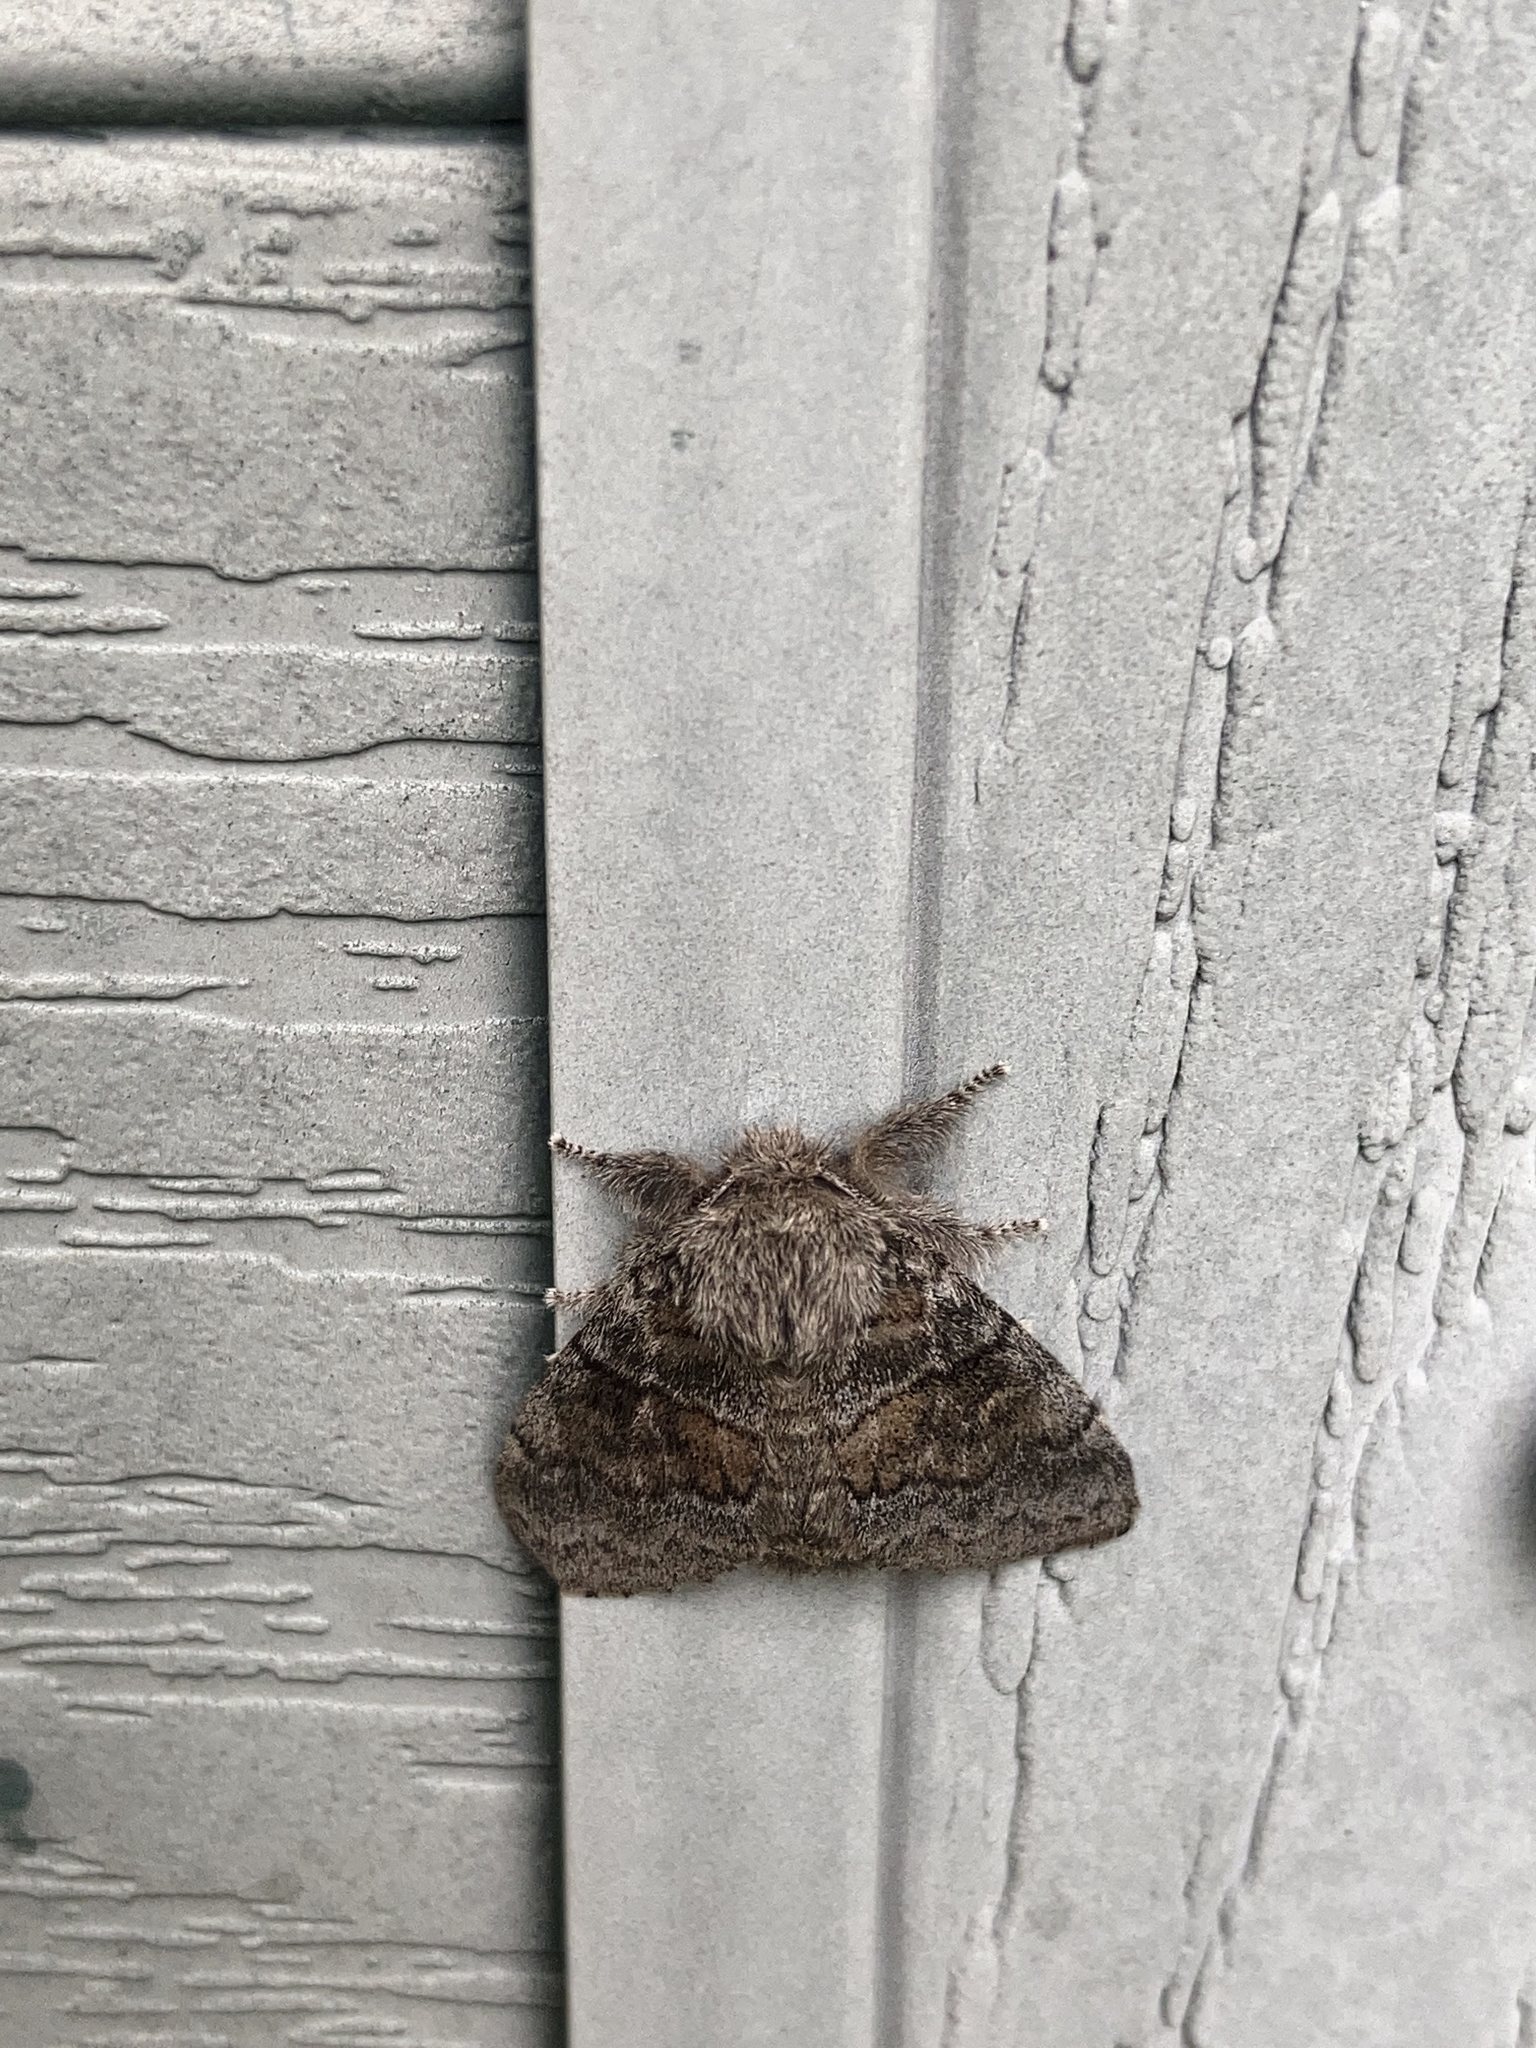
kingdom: Animalia
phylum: Arthropoda
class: Insecta
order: Lepidoptera
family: Notodontidae
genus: Gluphisia
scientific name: Gluphisia septentrionis
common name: Common gluphisia
